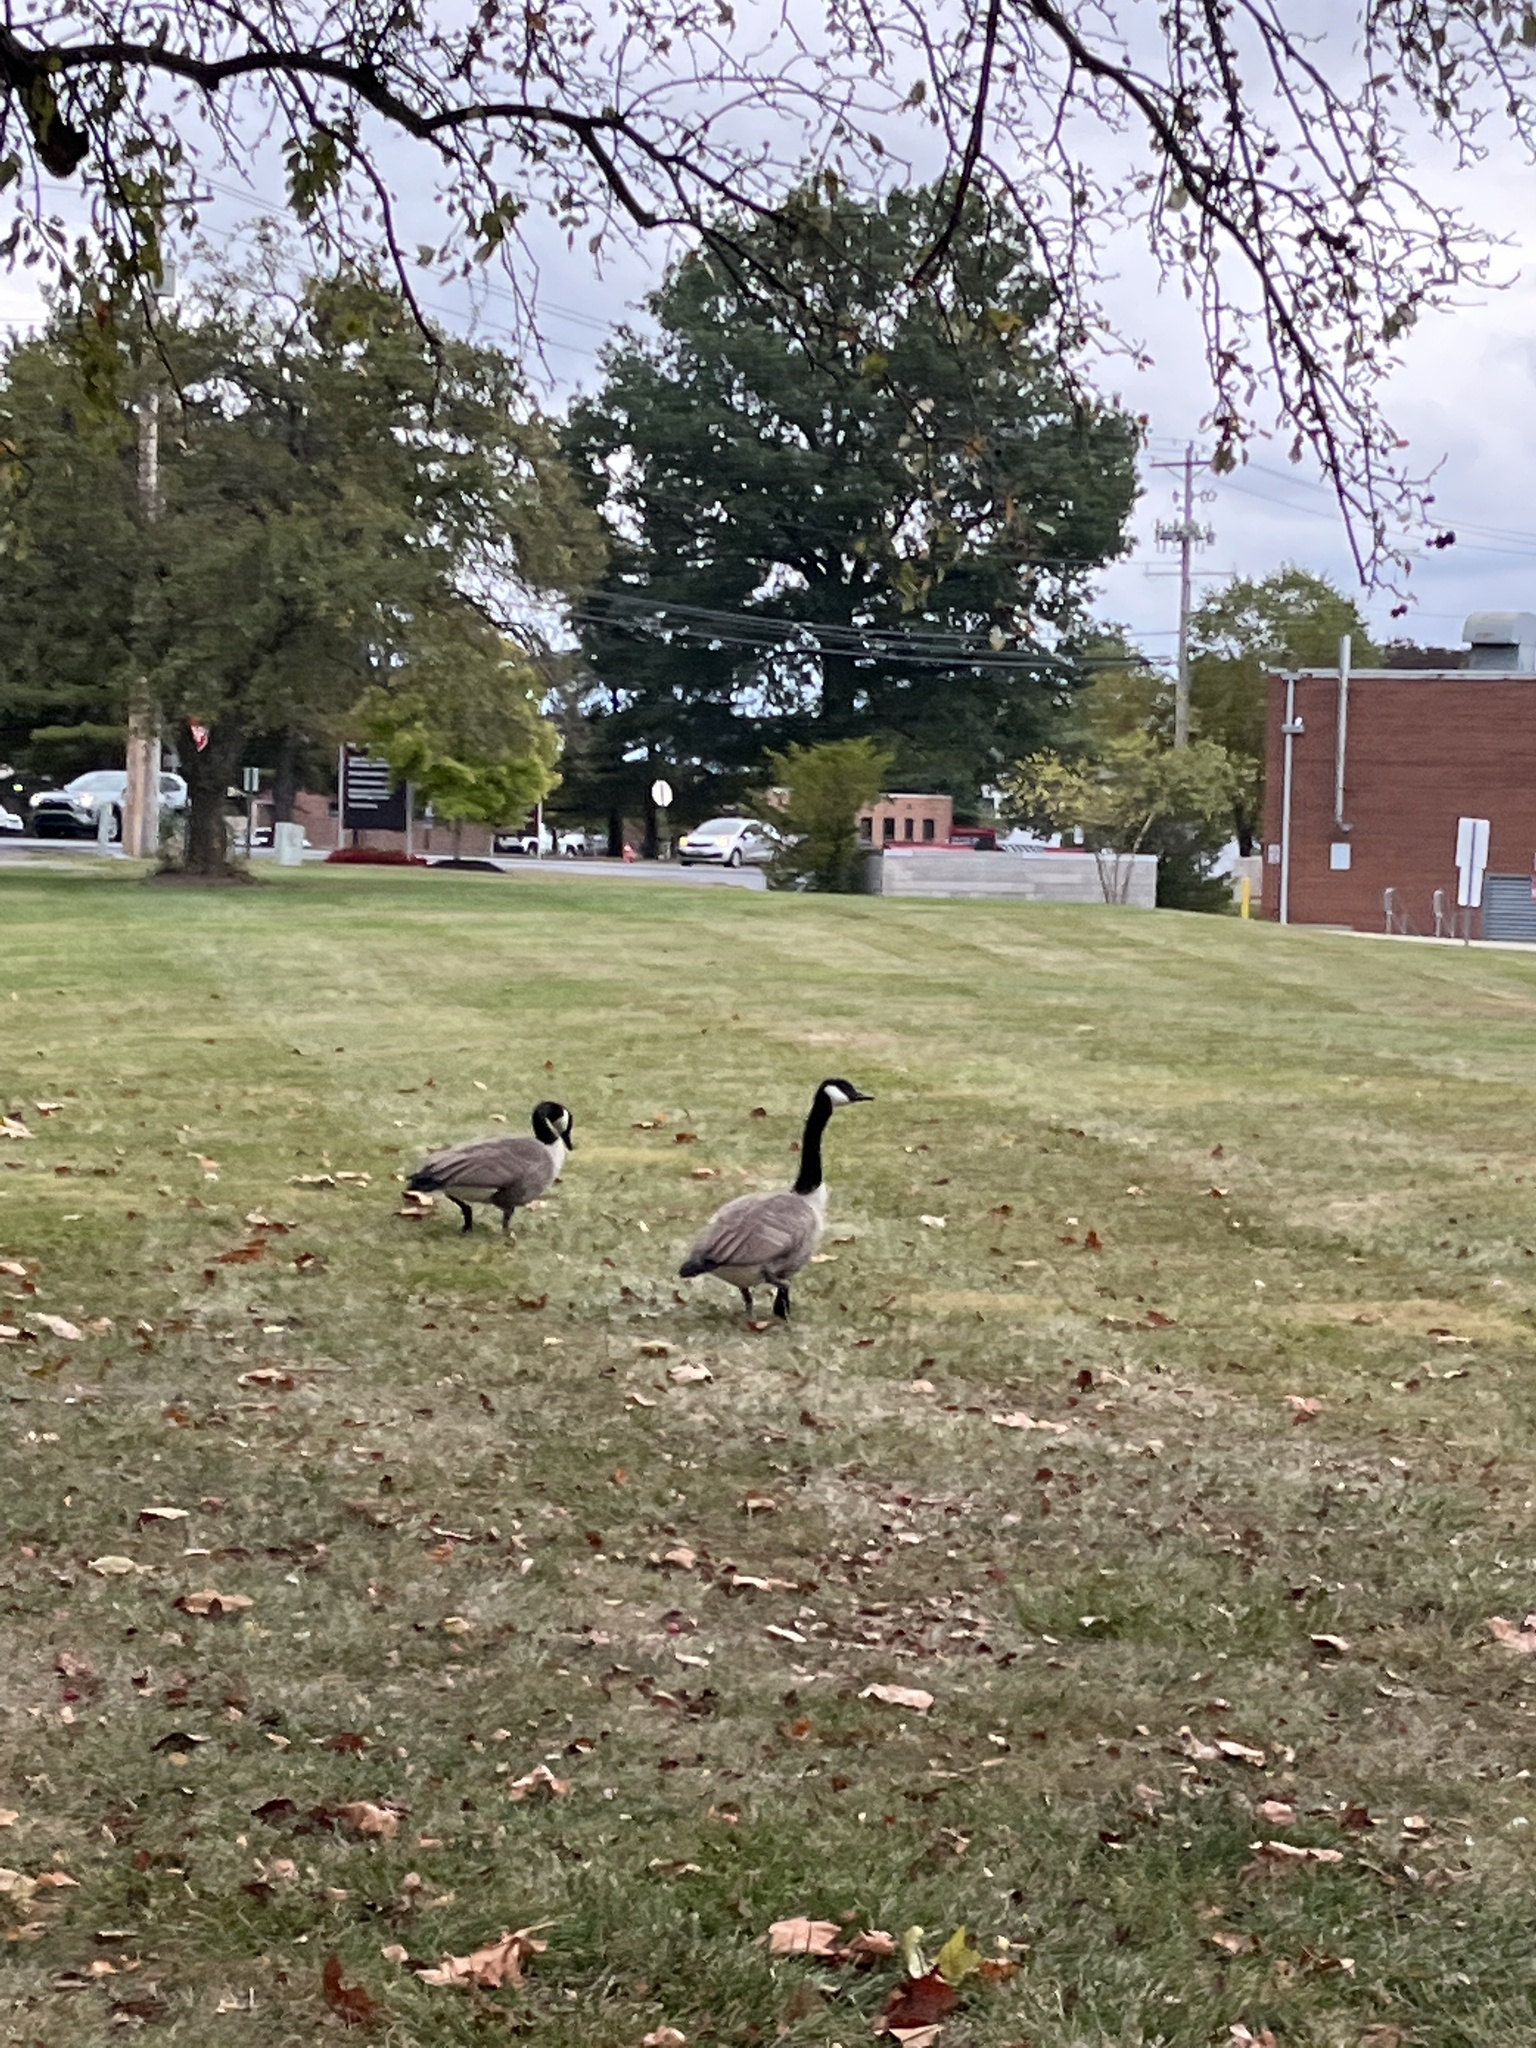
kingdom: Animalia
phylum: Chordata
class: Aves
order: Anseriformes
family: Anatidae
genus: Branta
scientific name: Branta canadensis
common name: Canada goose
